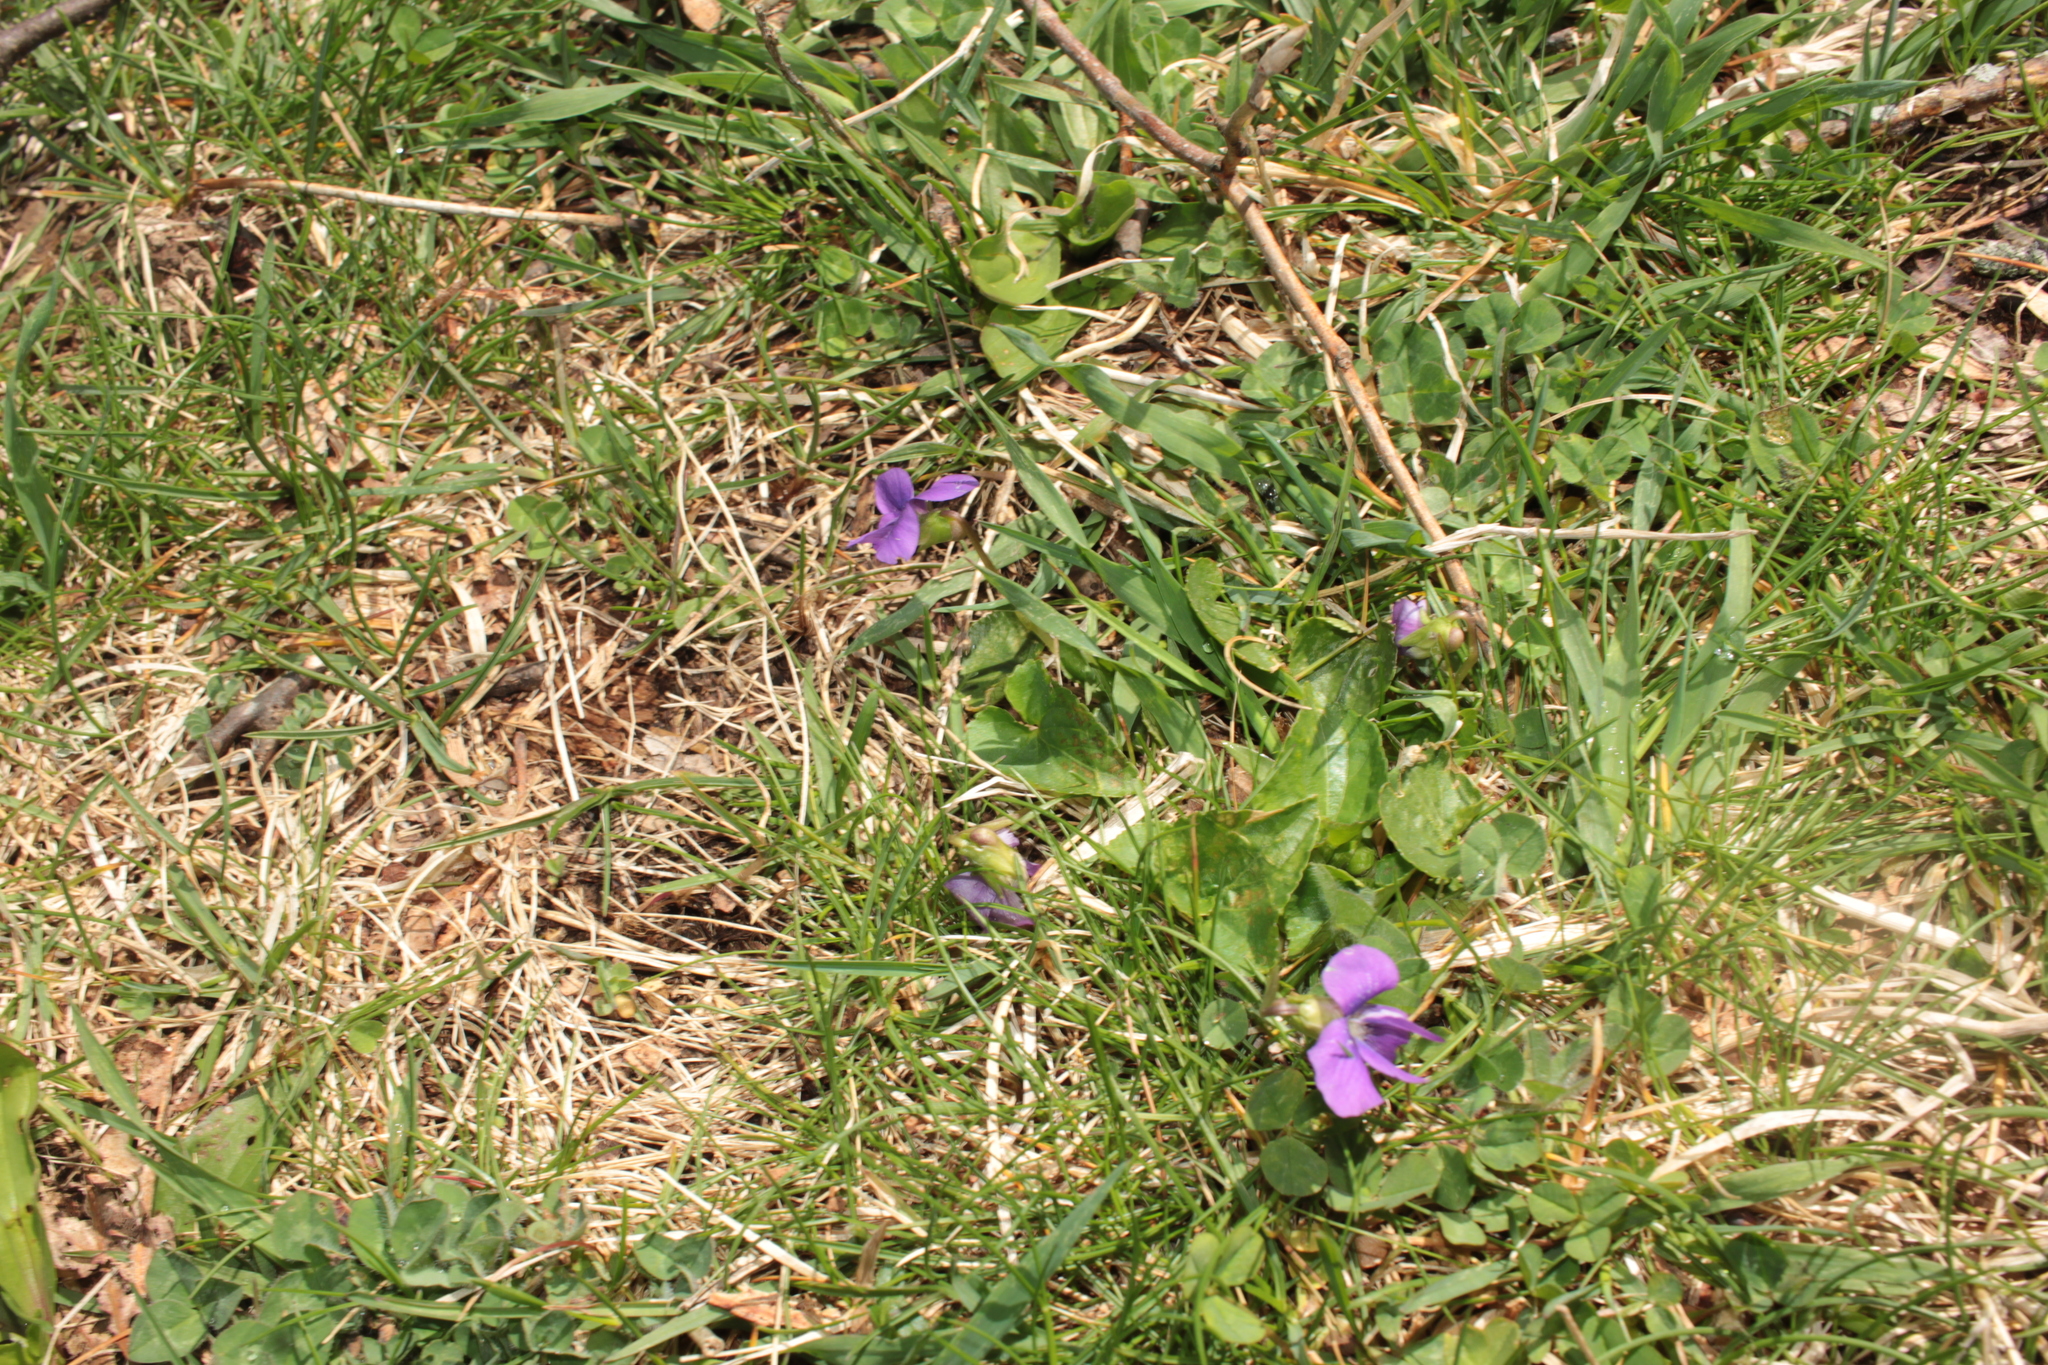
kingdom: Plantae
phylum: Tracheophyta
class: Magnoliopsida
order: Malpighiales
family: Violaceae
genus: Viola
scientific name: Viola sororia
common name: Dooryard violet
